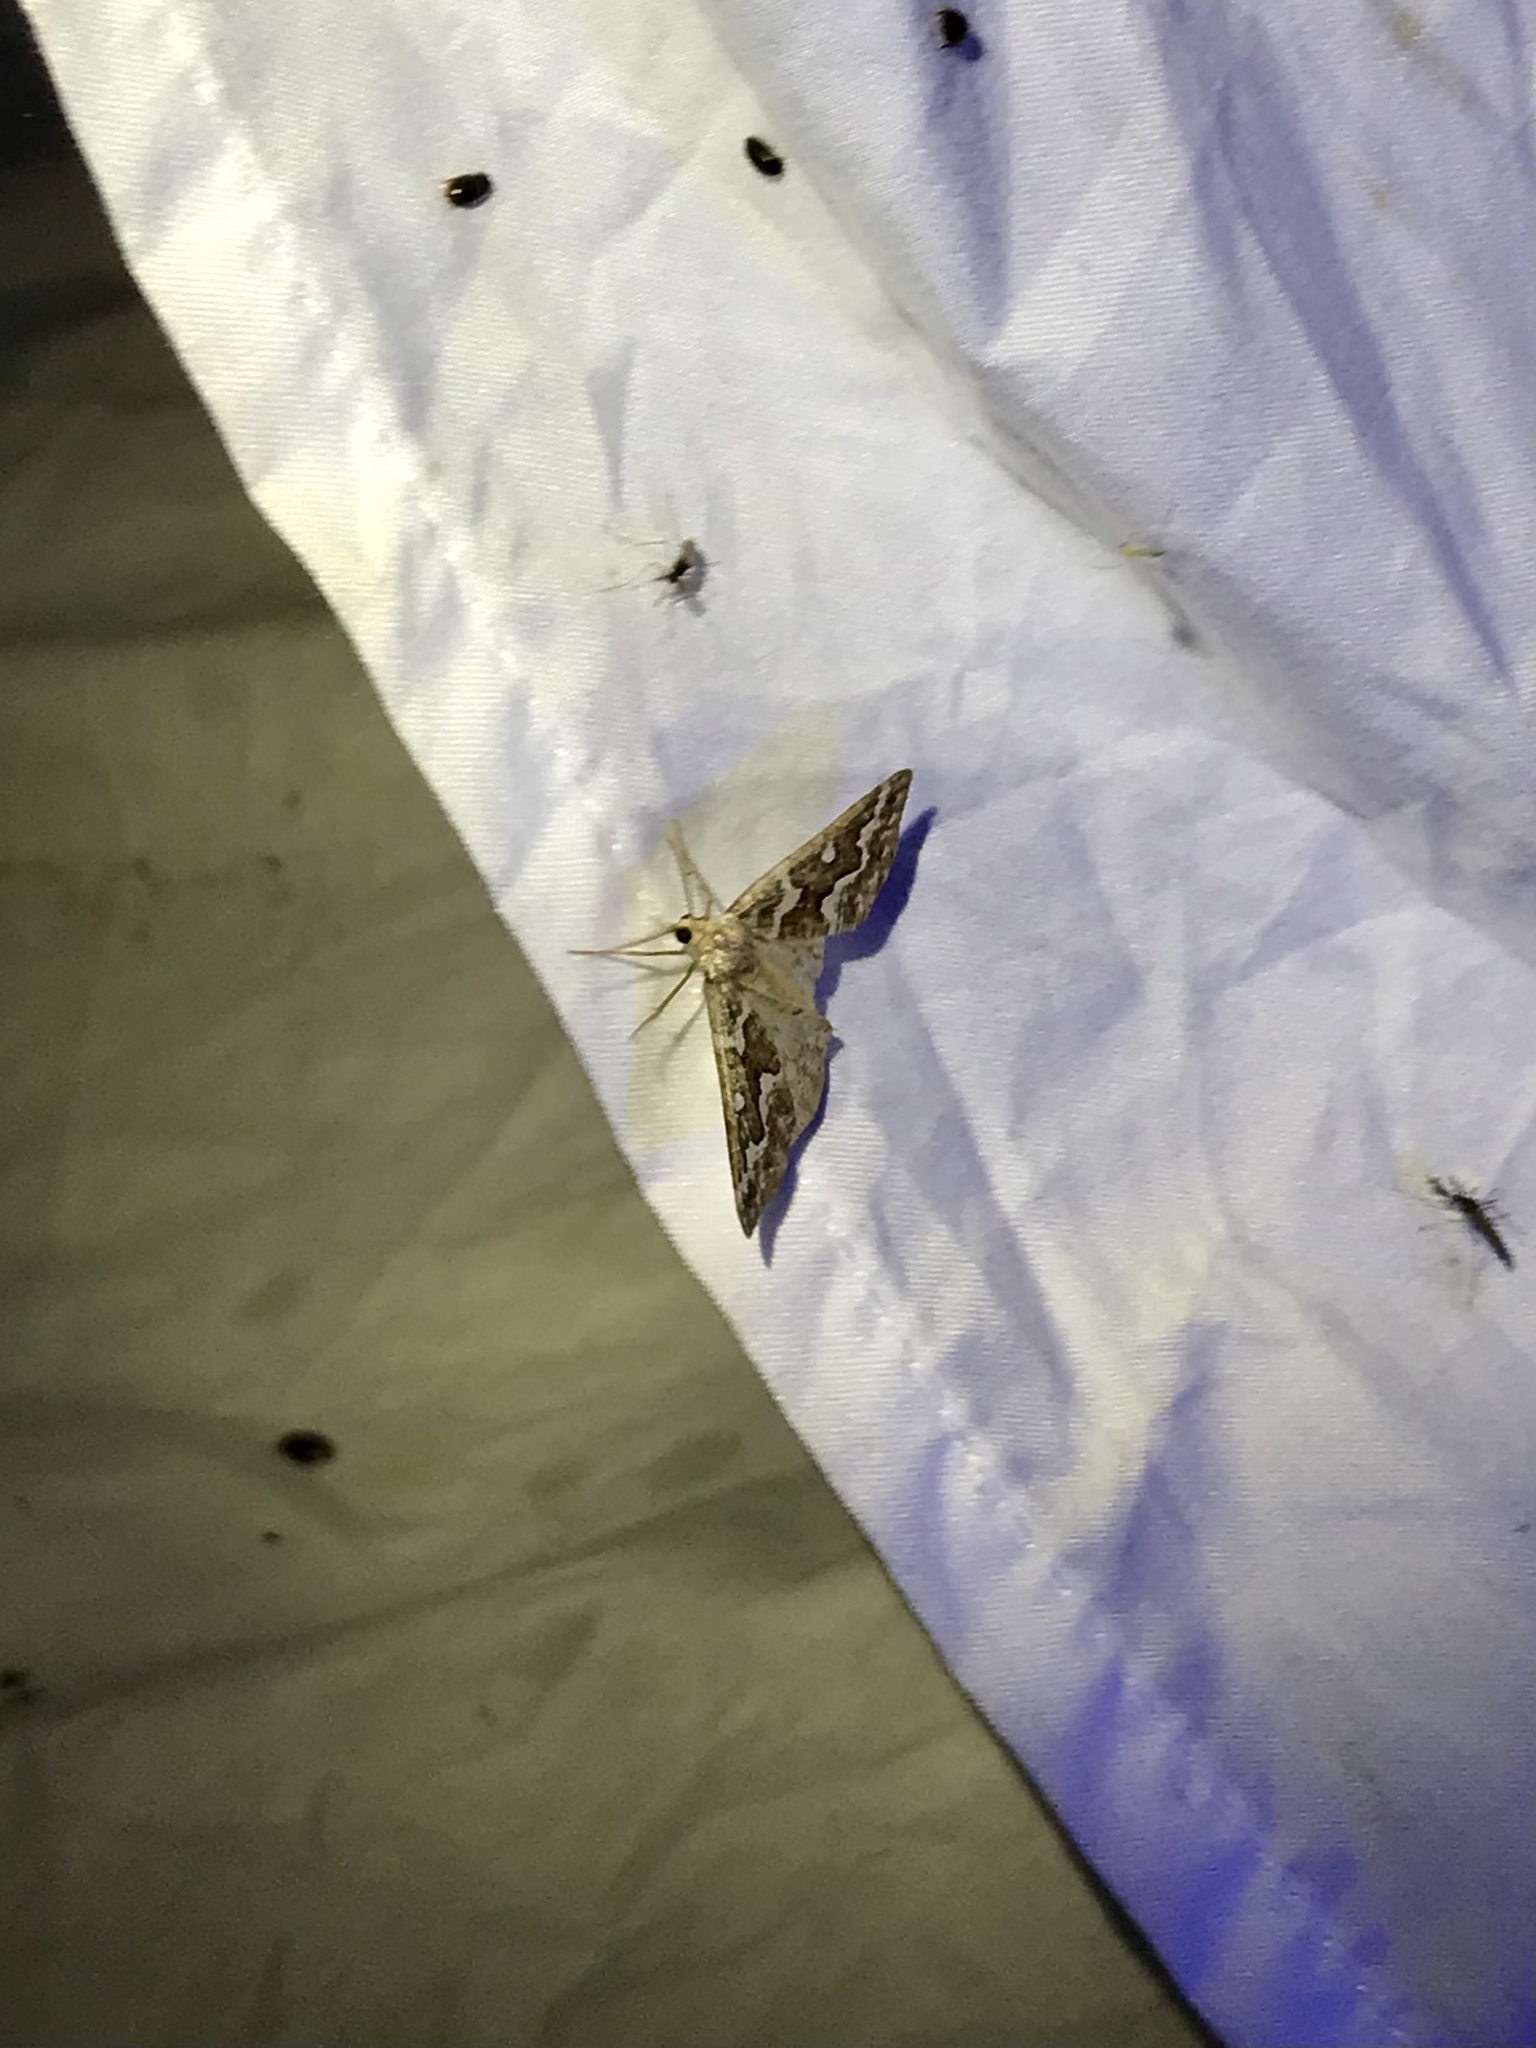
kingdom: Animalia
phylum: Arthropoda
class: Insecta
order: Lepidoptera
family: Geometridae
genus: Caripeta
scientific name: Caripeta divisata
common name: Gray spruce looper
